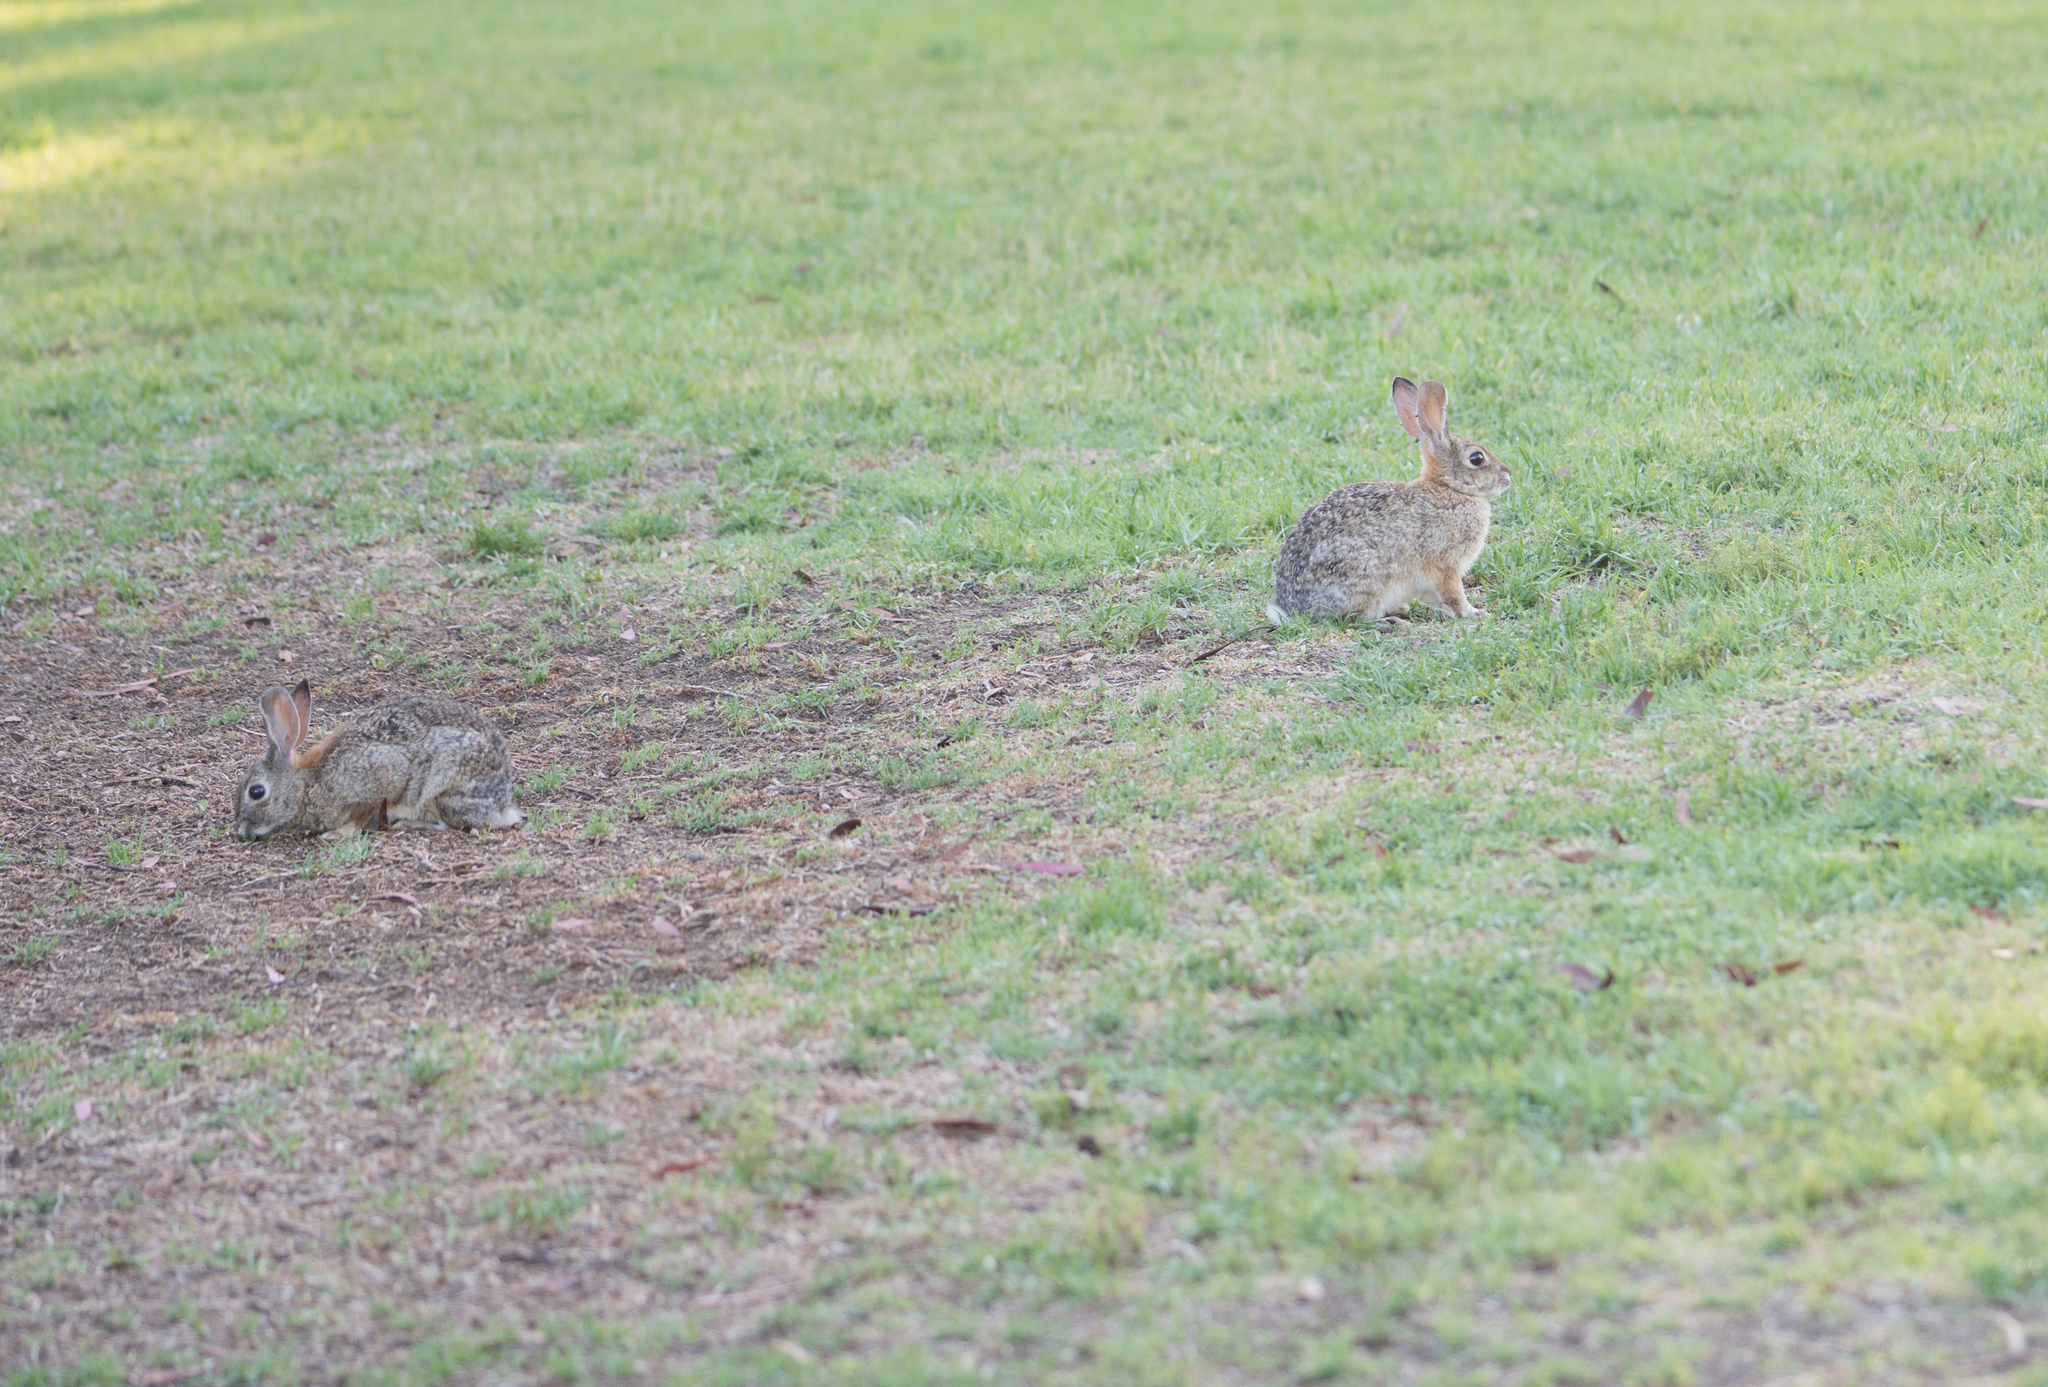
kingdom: Animalia
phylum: Chordata
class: Mammalia
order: Lagomorpha
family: Leporidae
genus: Sylvilagus
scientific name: Sylvilagus audubonii
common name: Desert cottontail
